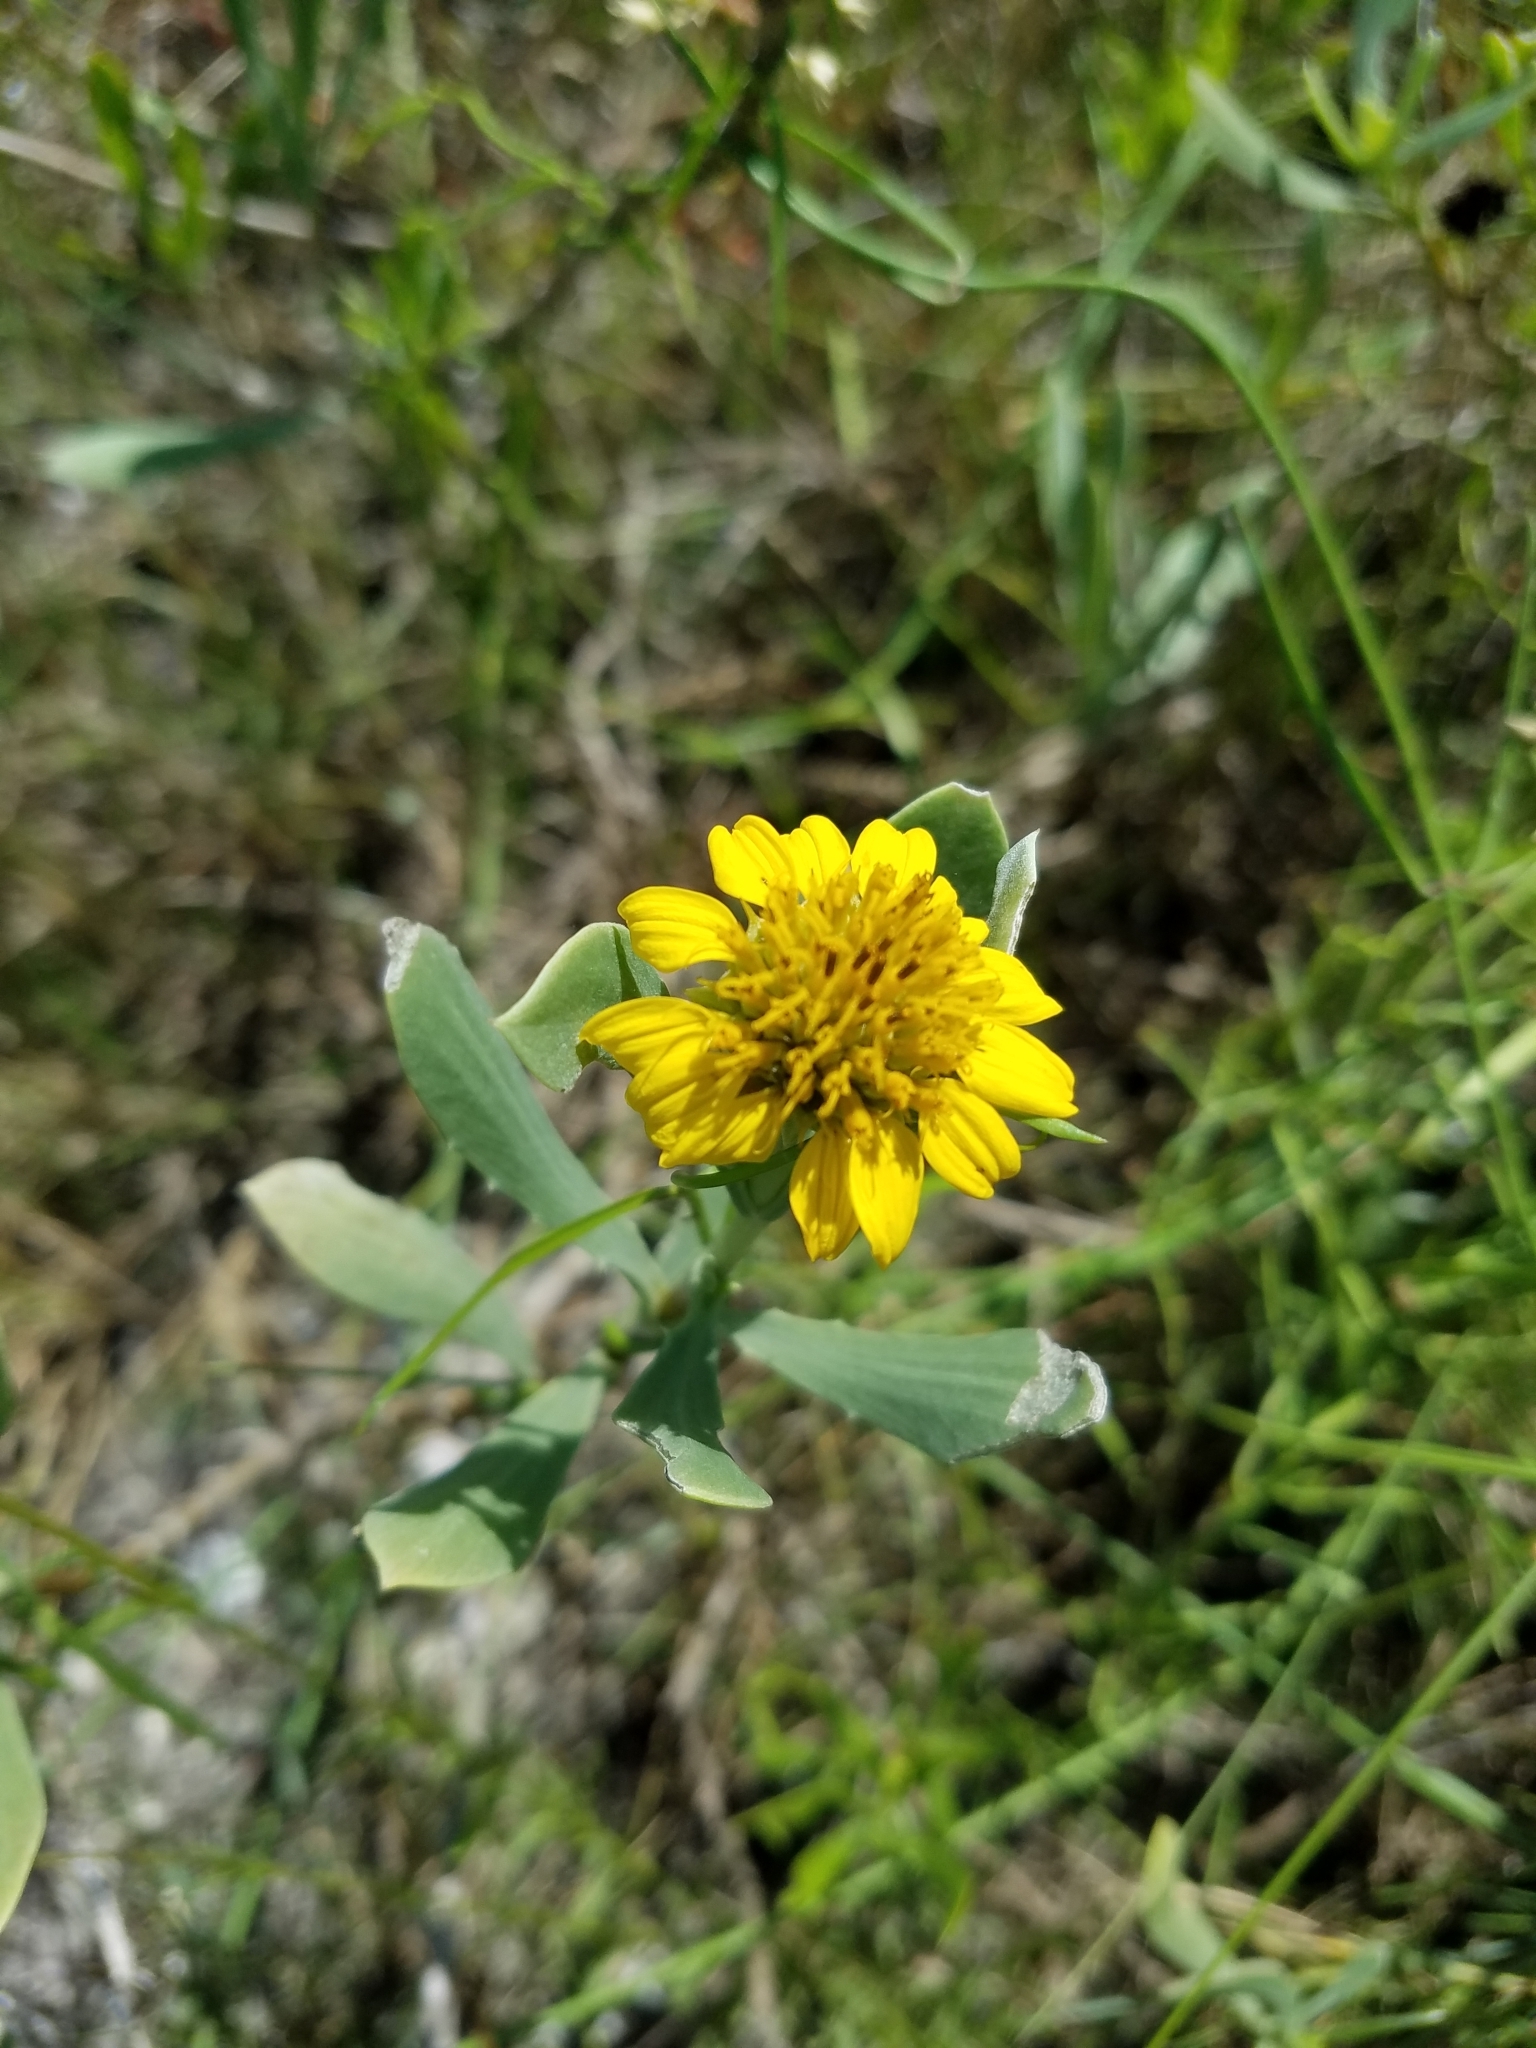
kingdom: Plantae
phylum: Tracheophyta
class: Magnoliopsida
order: Asterales
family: Asteraceae
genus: Borrichia
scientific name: Borrichia frutescens
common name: Sea oxeye
